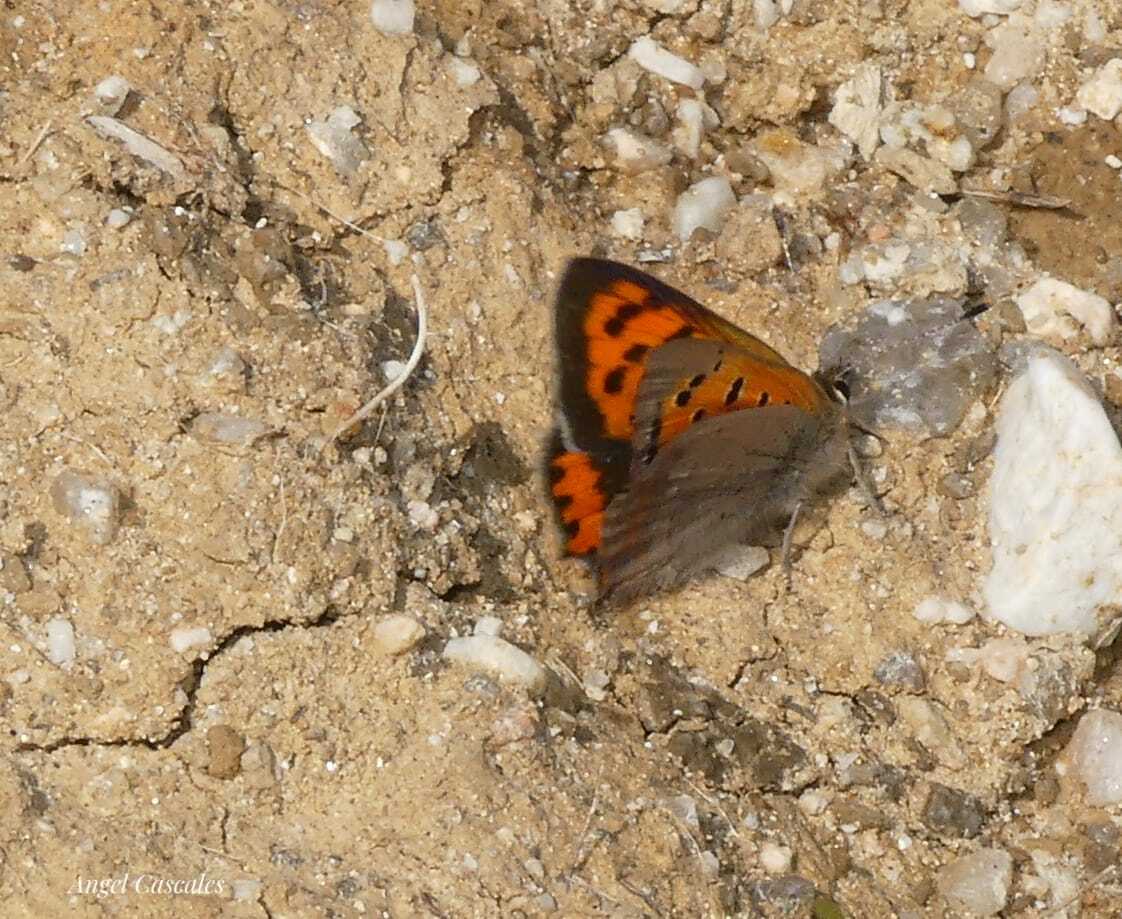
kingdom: Animalia
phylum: Arthropoda
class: Insecta
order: Lepidoptera
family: Lycaenidae
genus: Lycaena
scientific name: Lycaena phlaeas
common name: Small copper
